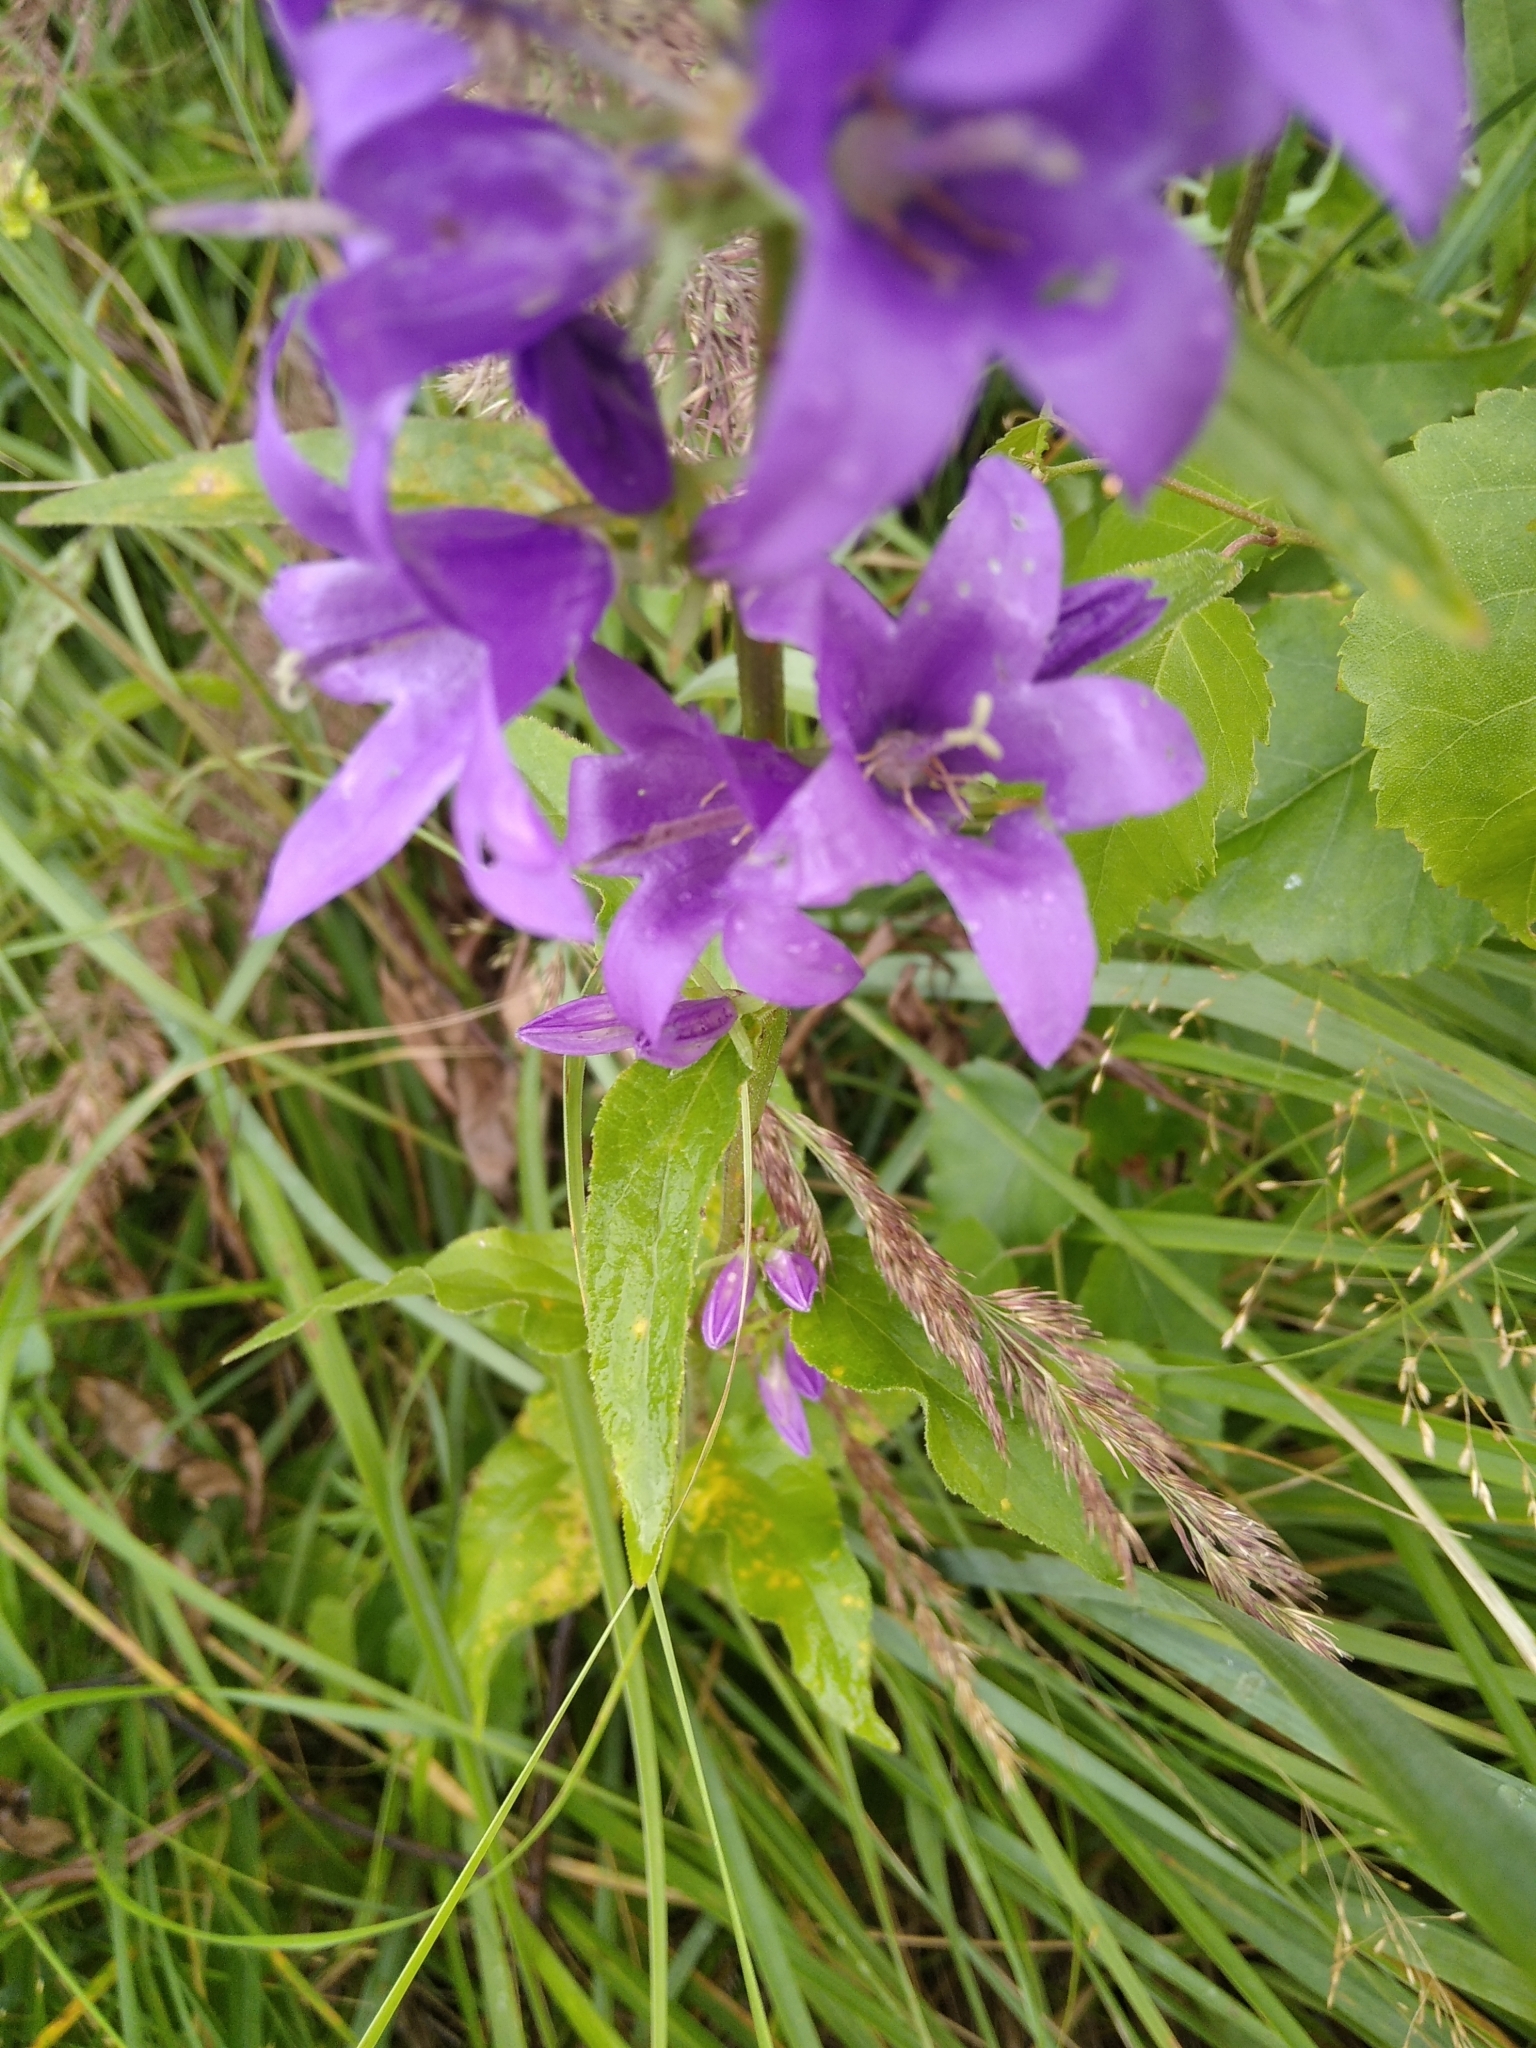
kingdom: Plantae
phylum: Tracheophyta
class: Magnoliopsida
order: Asterales
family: Campanulaceae
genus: Campanula
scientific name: Campanula glomerata
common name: Clustered bellflower
